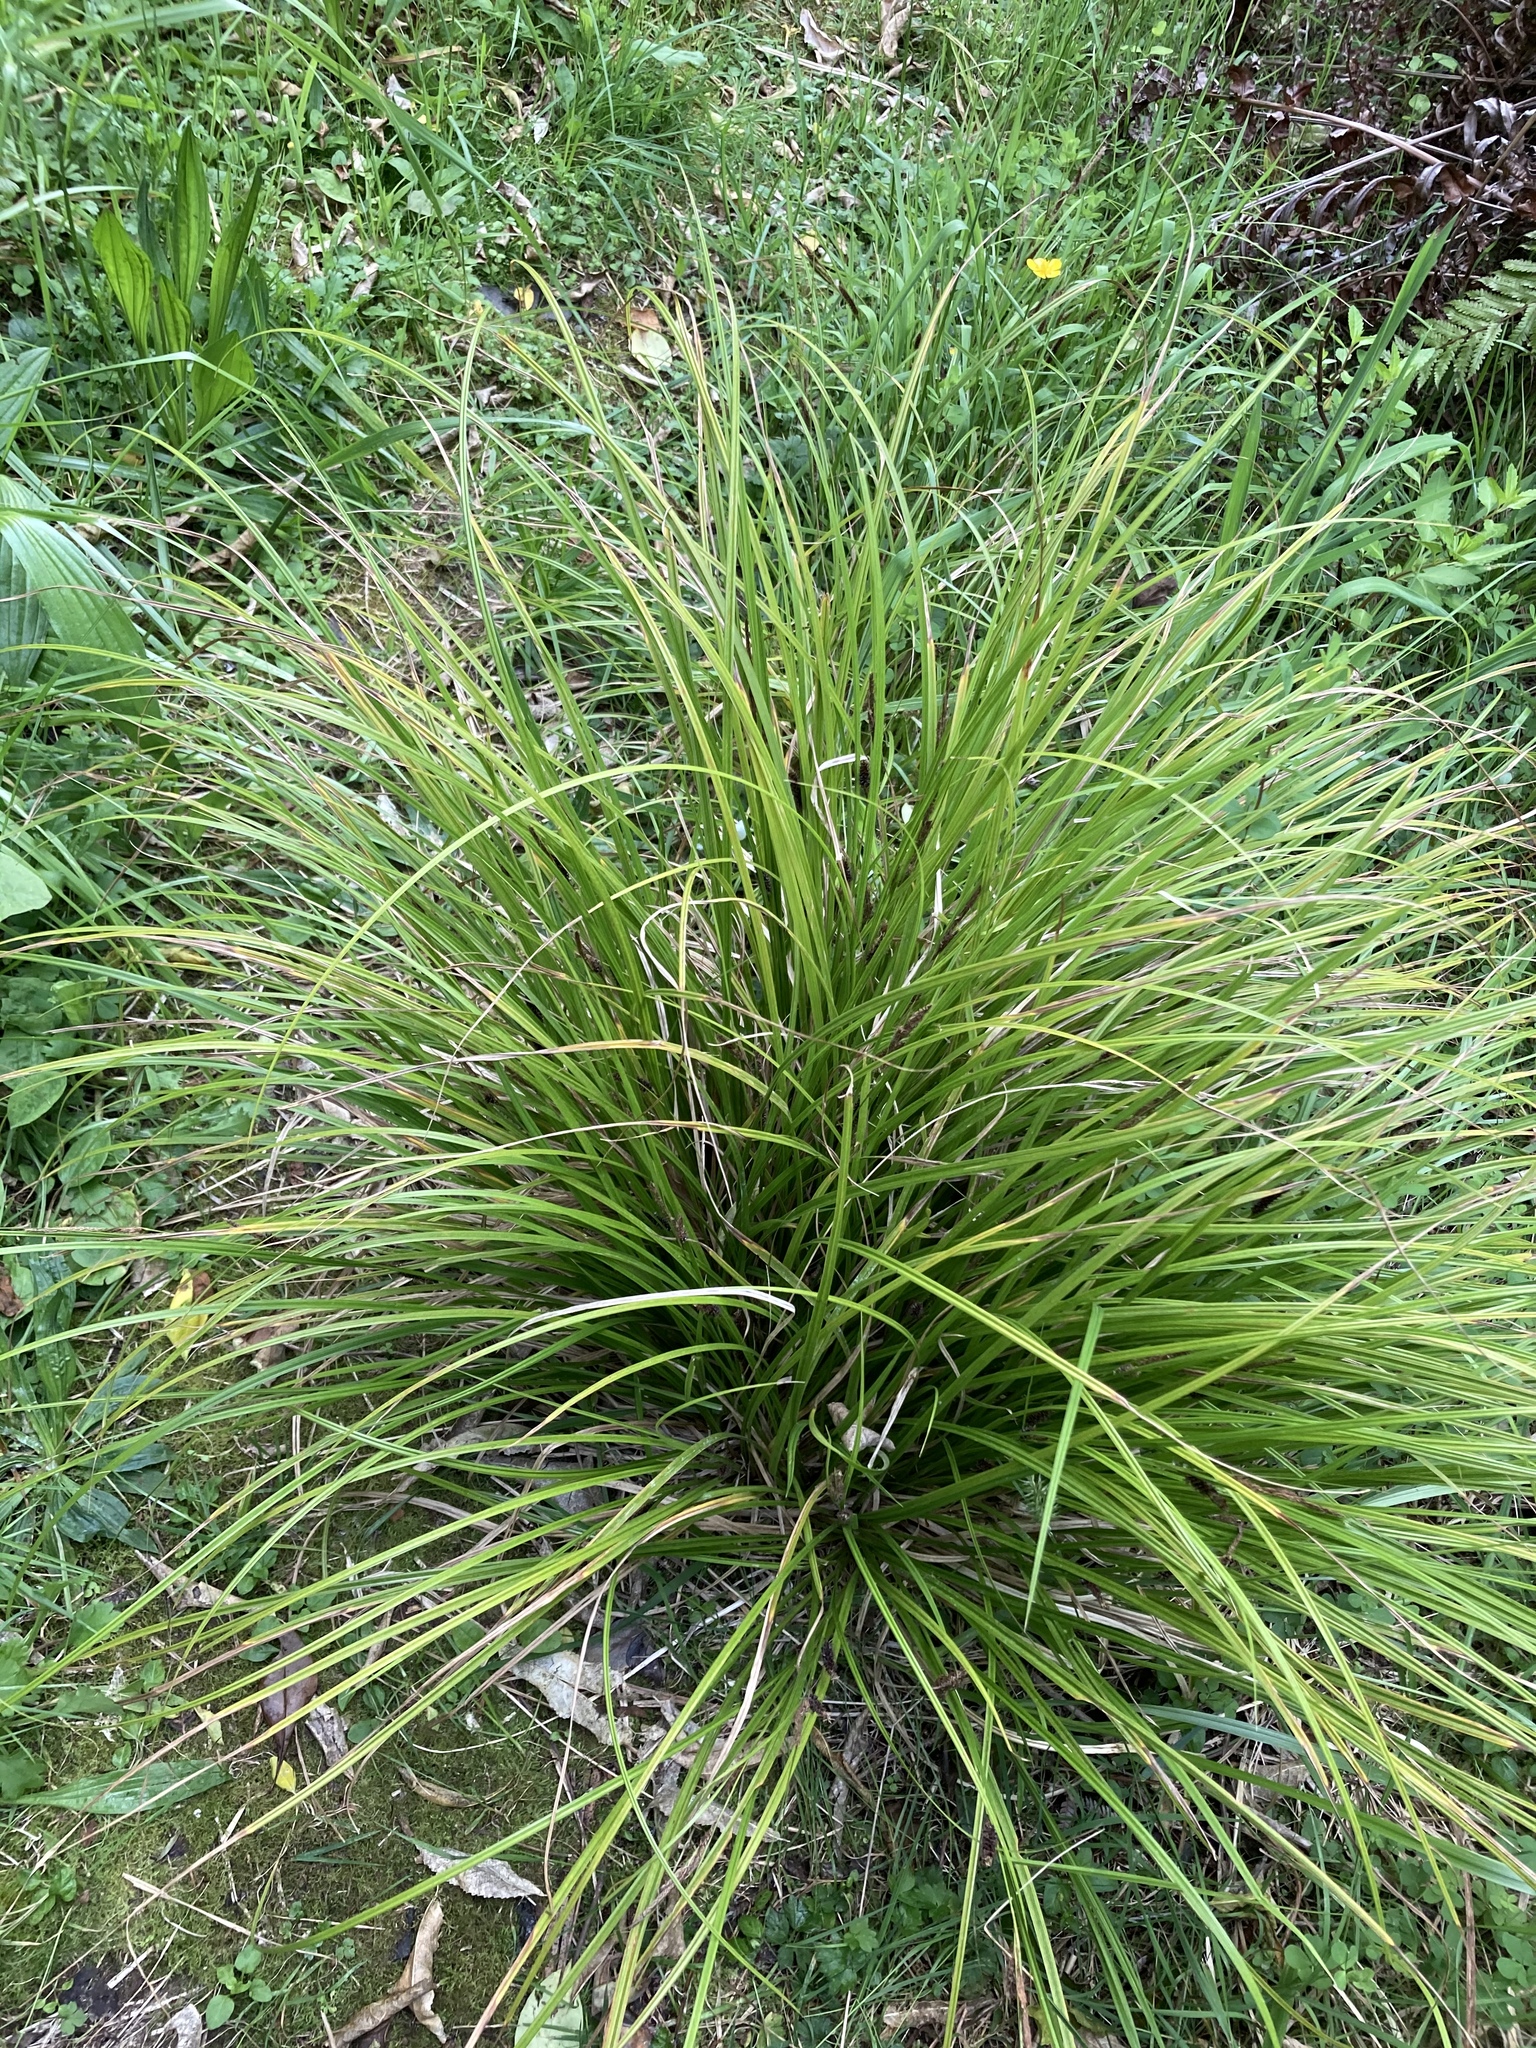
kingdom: Plantae
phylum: Tracheophyta
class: Liliopsida
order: Poales
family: Cyperaceae
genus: Carex
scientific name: Carex dissita
